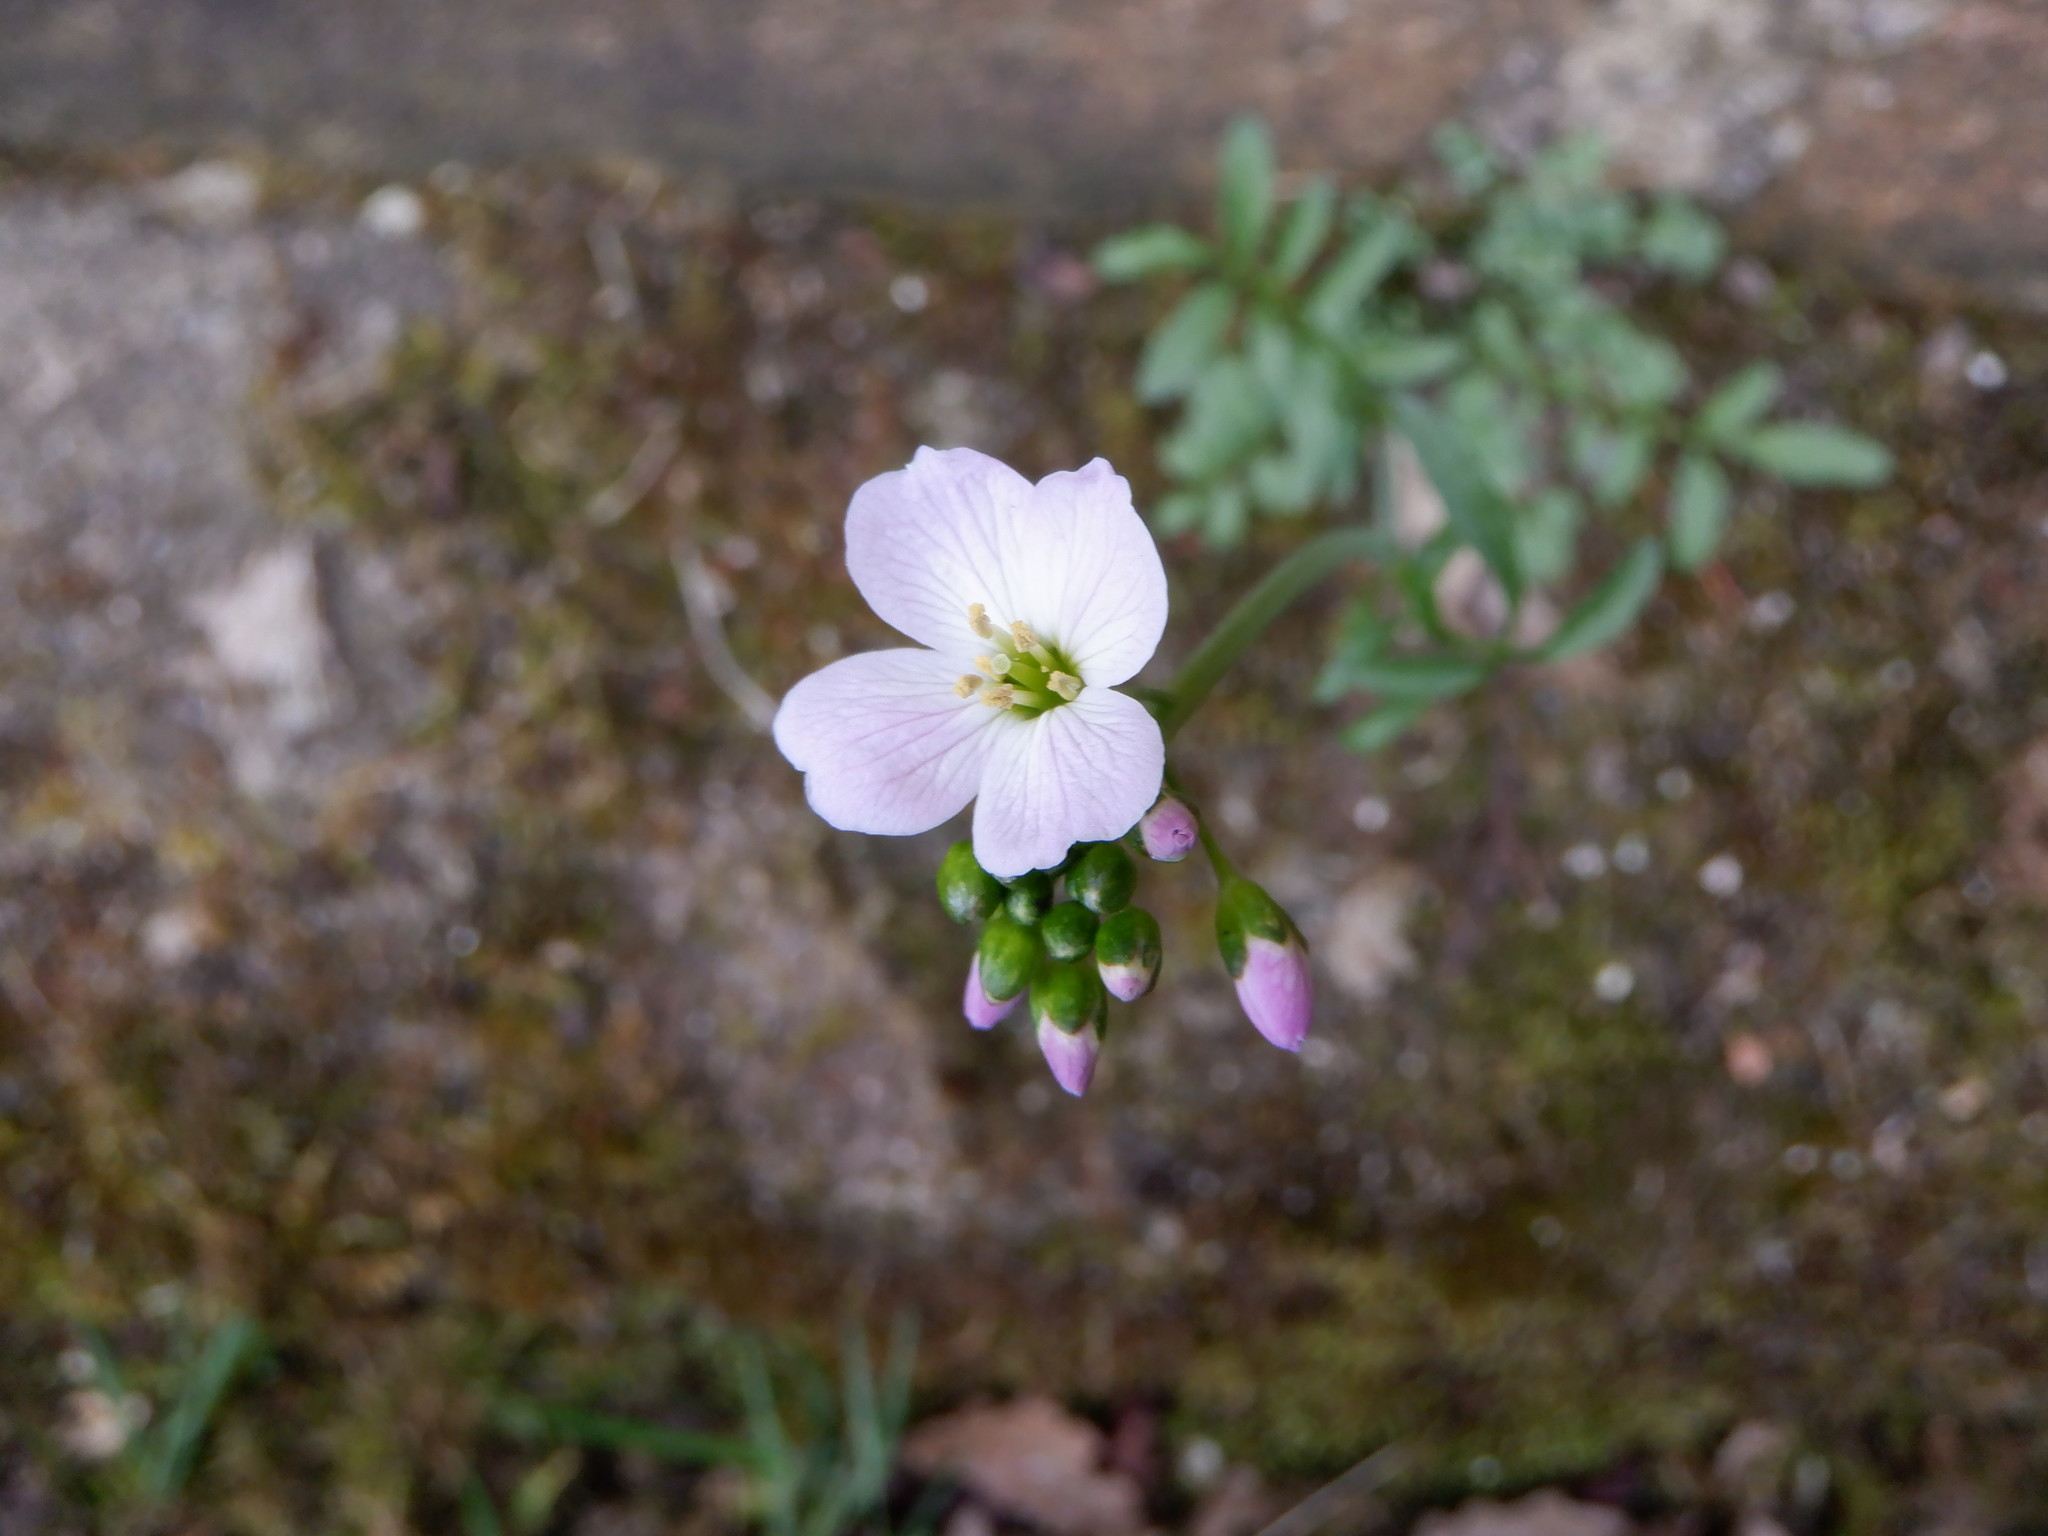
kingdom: Plantae
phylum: Tracheophyta
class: Magnoliopsida
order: Brassicales
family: Brassicaceae
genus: Cardamine
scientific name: Cardamine pratensis
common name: Cuckoo flower
